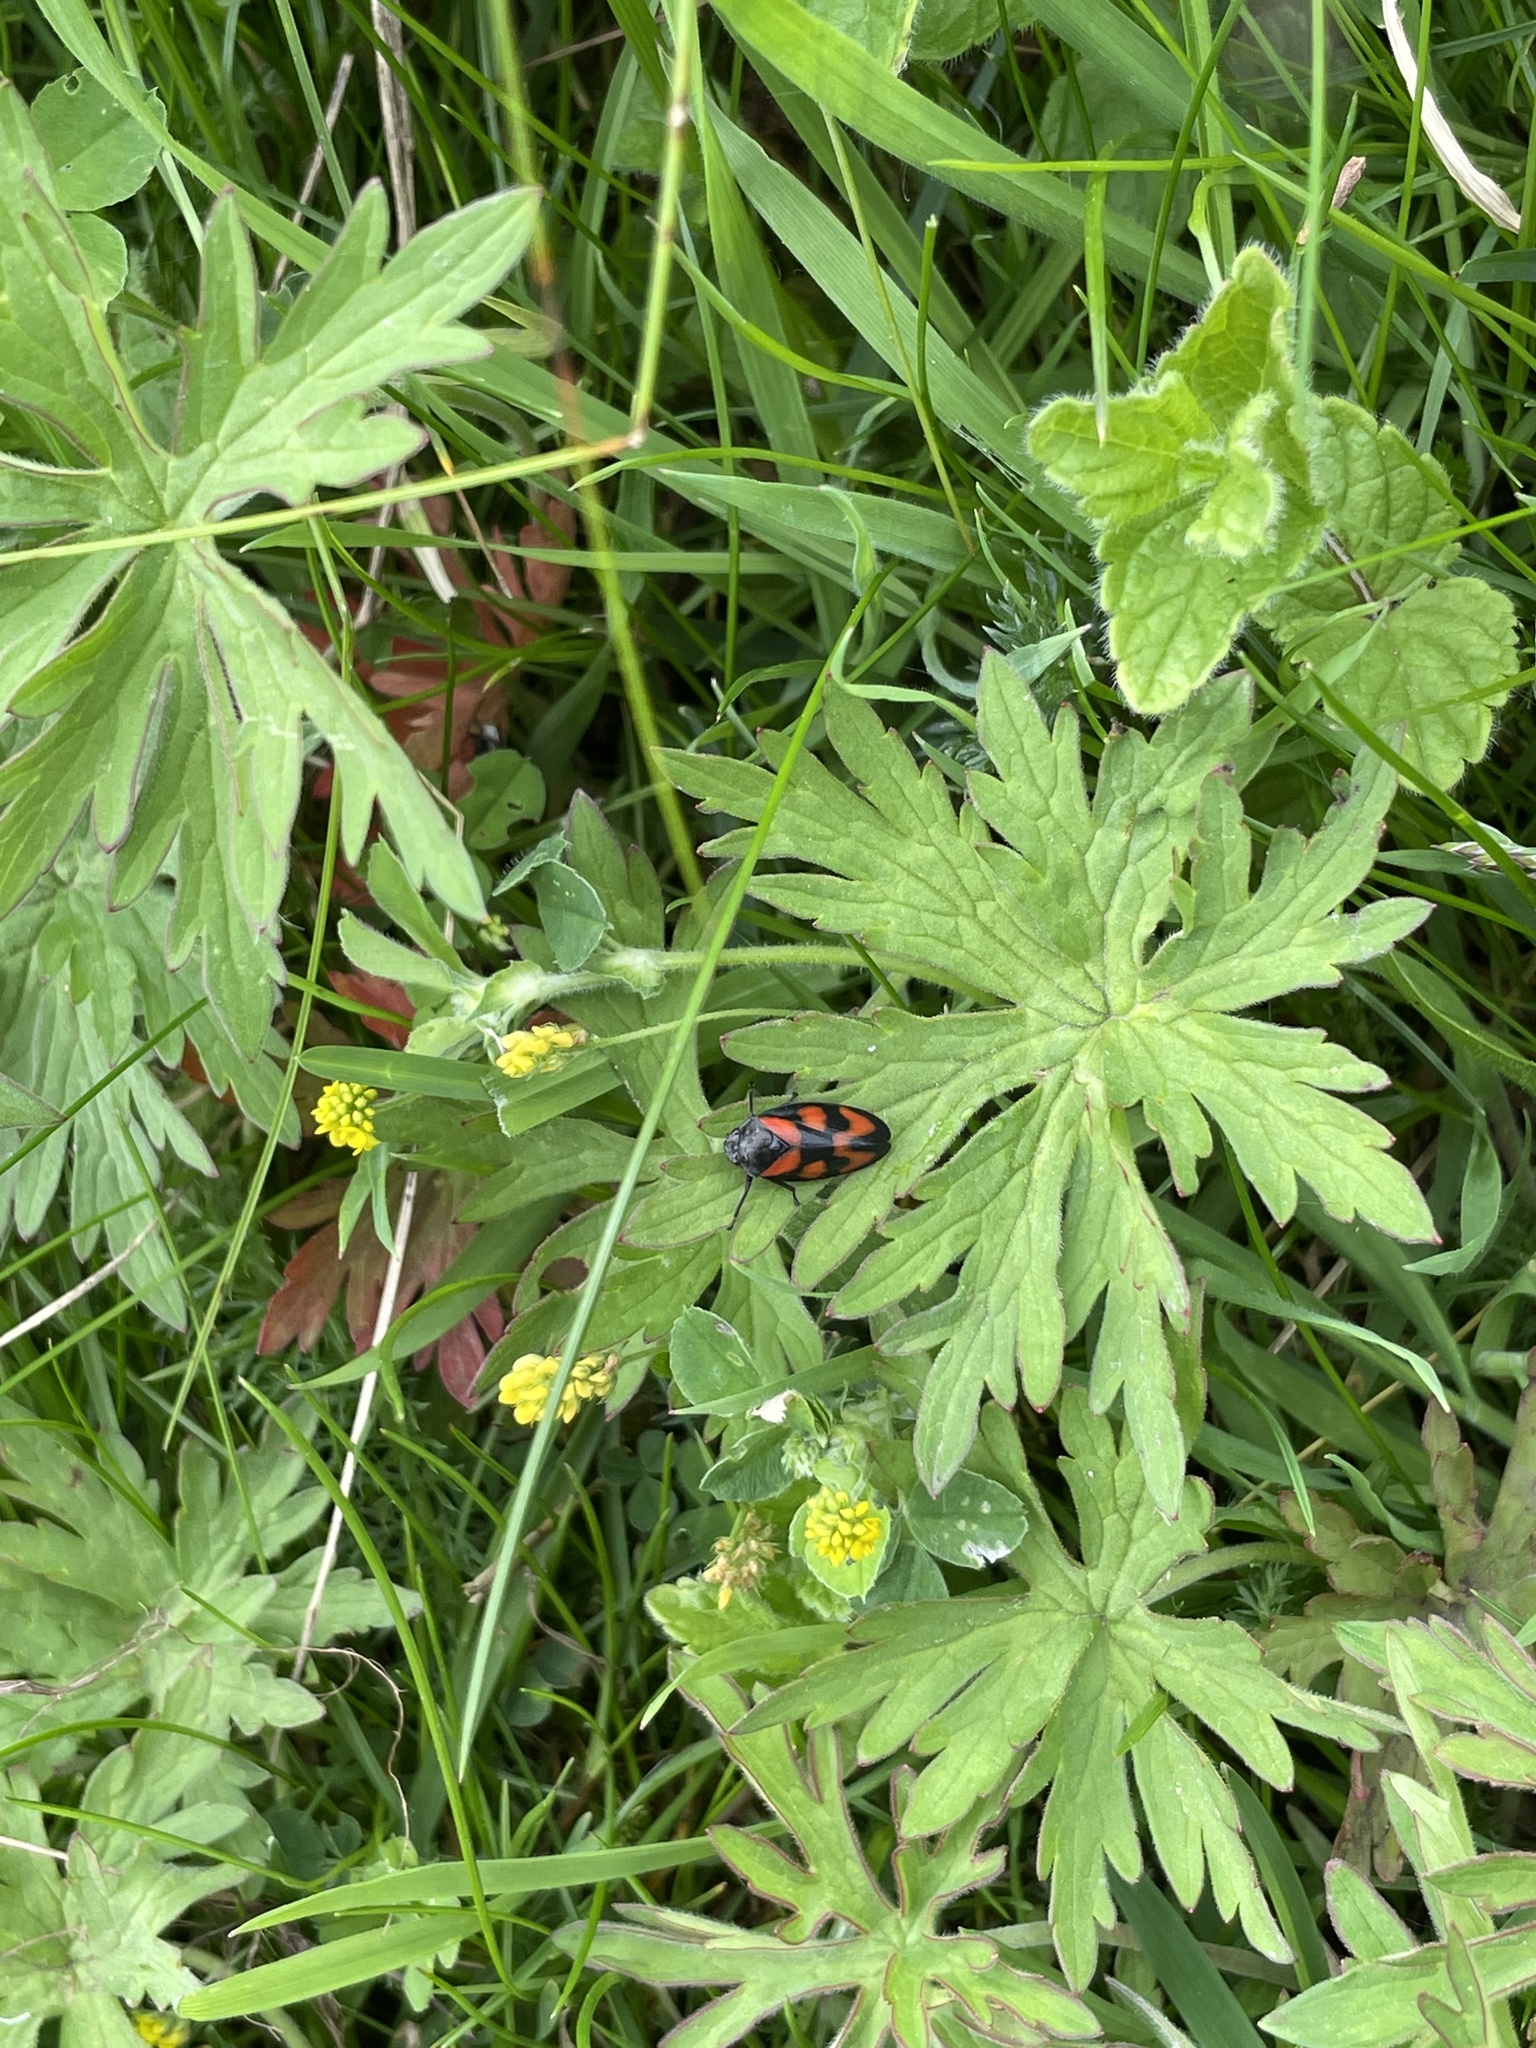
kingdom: Animalia
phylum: Arthropoda
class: Insecta
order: Hemiptera
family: Cercopidae
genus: Cercopis
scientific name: Cercopis vulnerata
